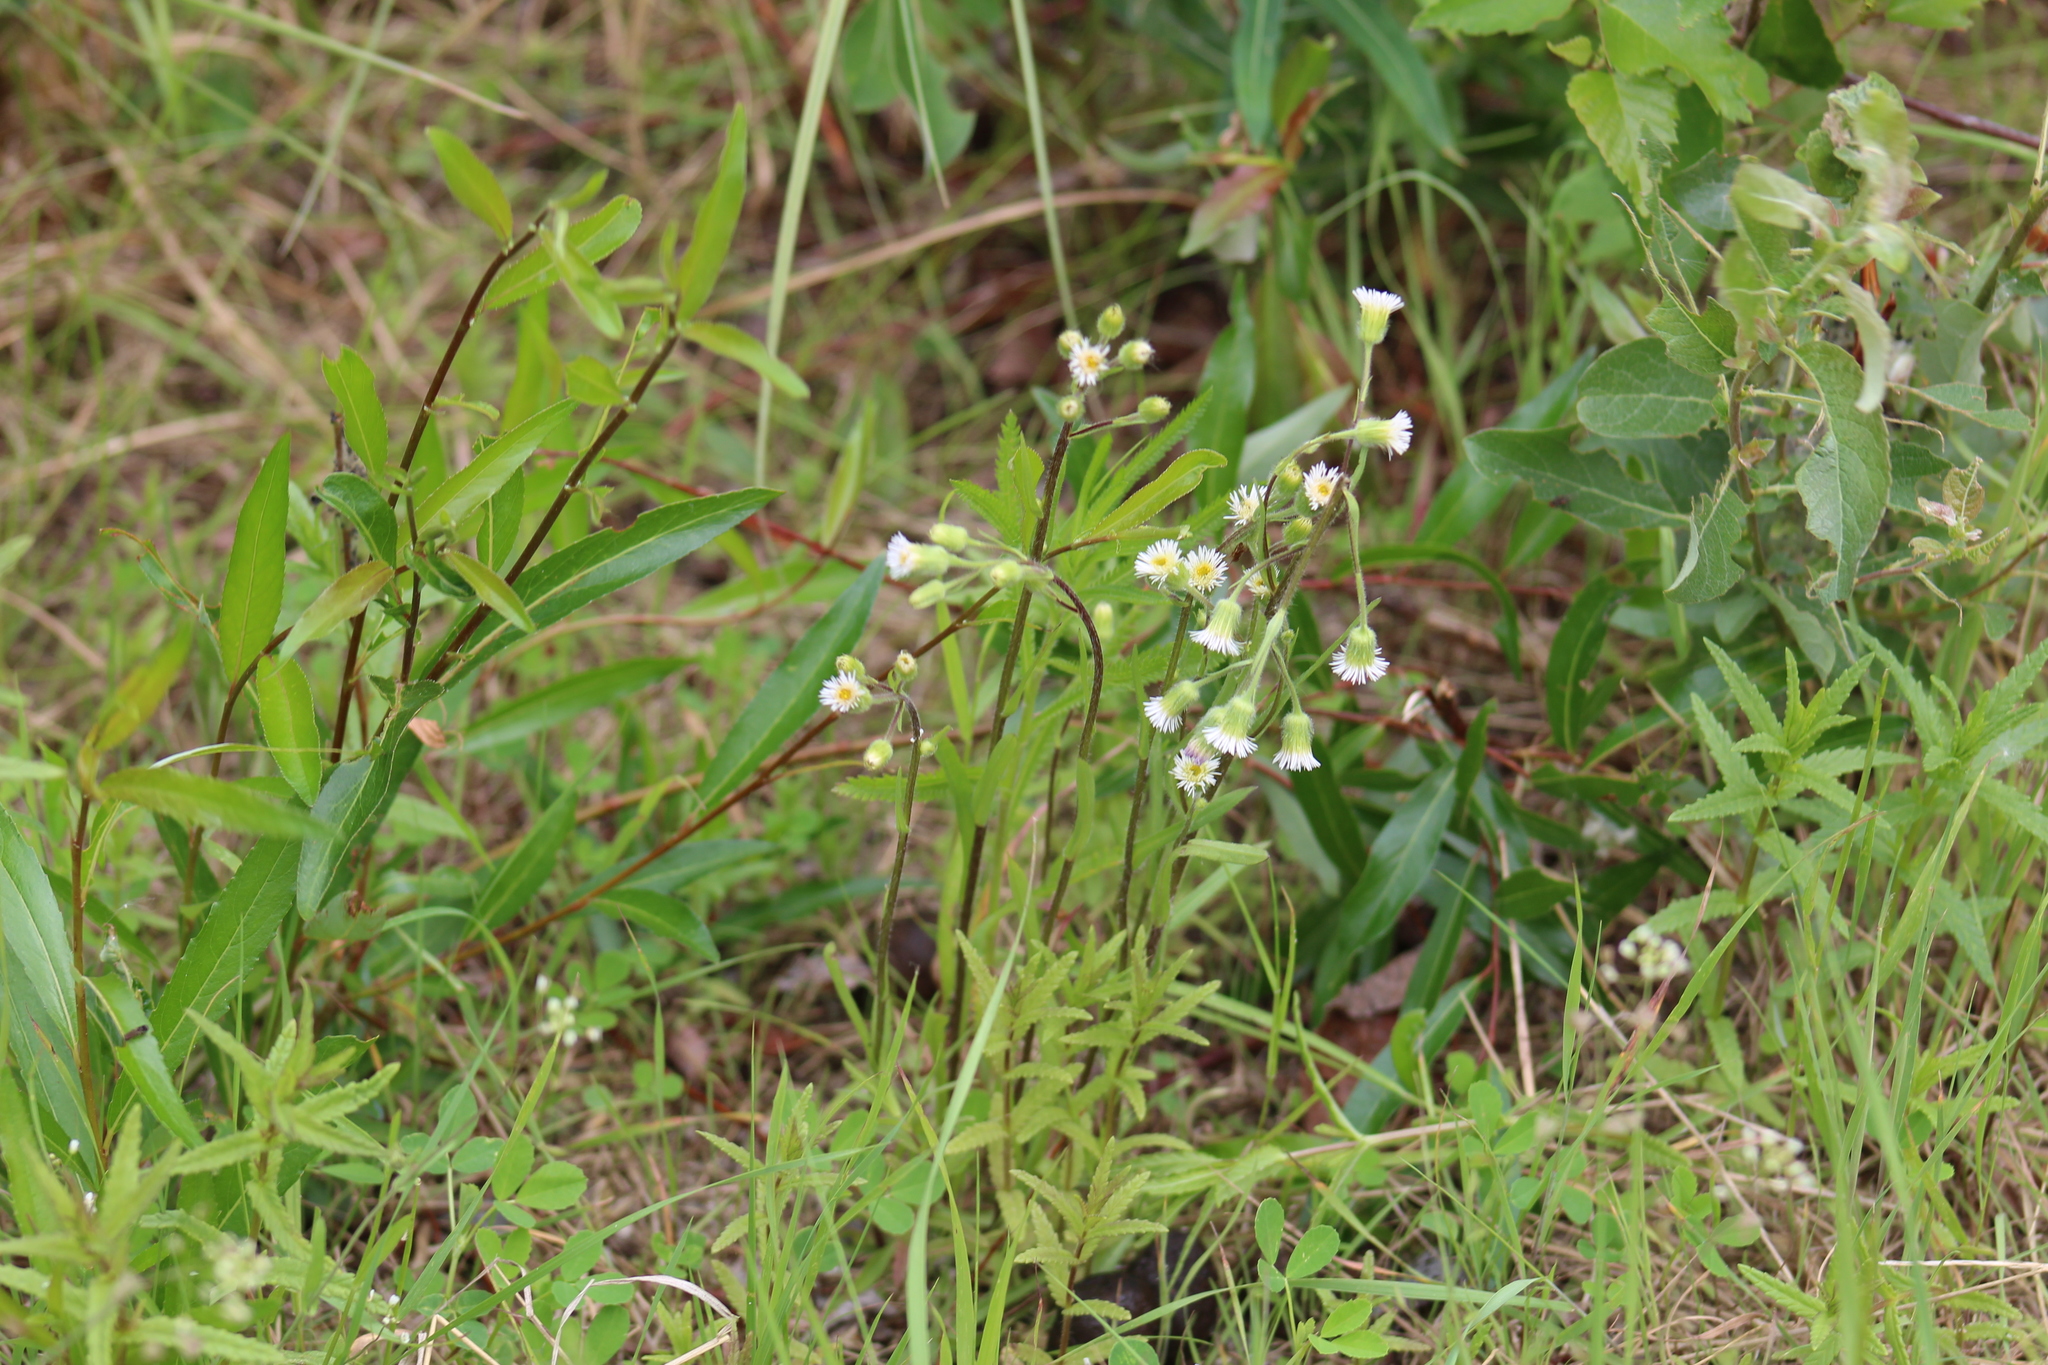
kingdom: Plantae
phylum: Tracheophyta
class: Magnoliopsida
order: Asterales
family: Asteraceae
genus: Erigeron
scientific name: Erigeron elatus
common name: Swamp fleabane
